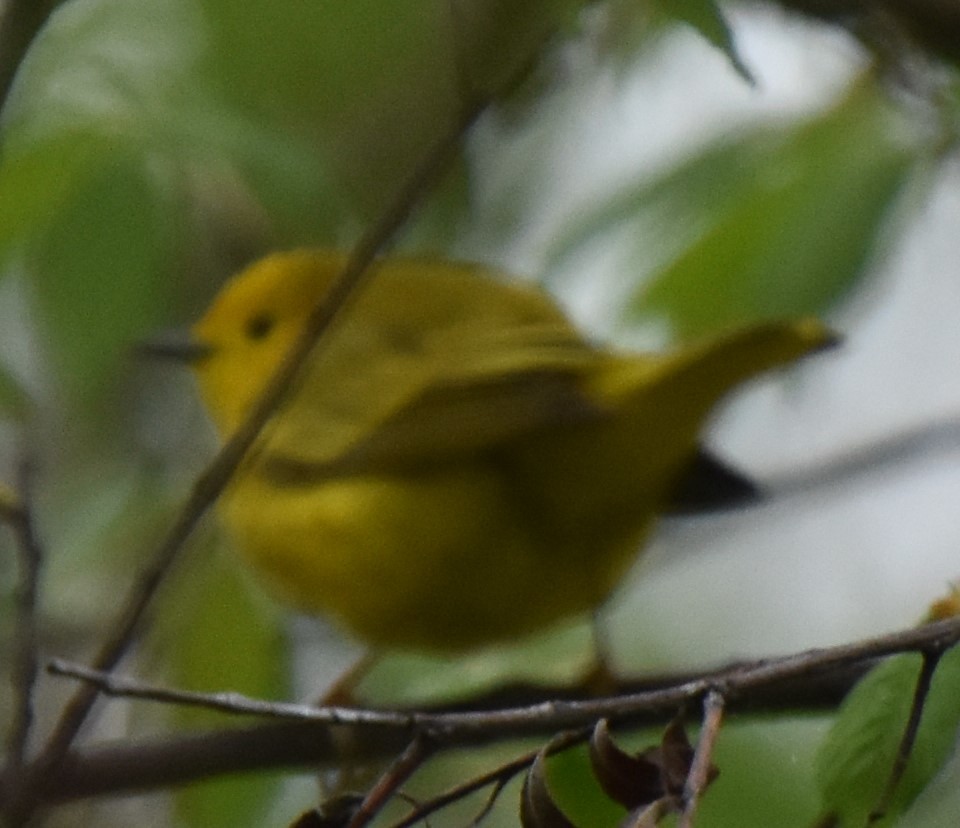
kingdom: Animalia
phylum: Chordata
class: Aves
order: Passeriformes
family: Parulidae
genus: Setophaga
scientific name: Setophaga petechia
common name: Yellow warbler
